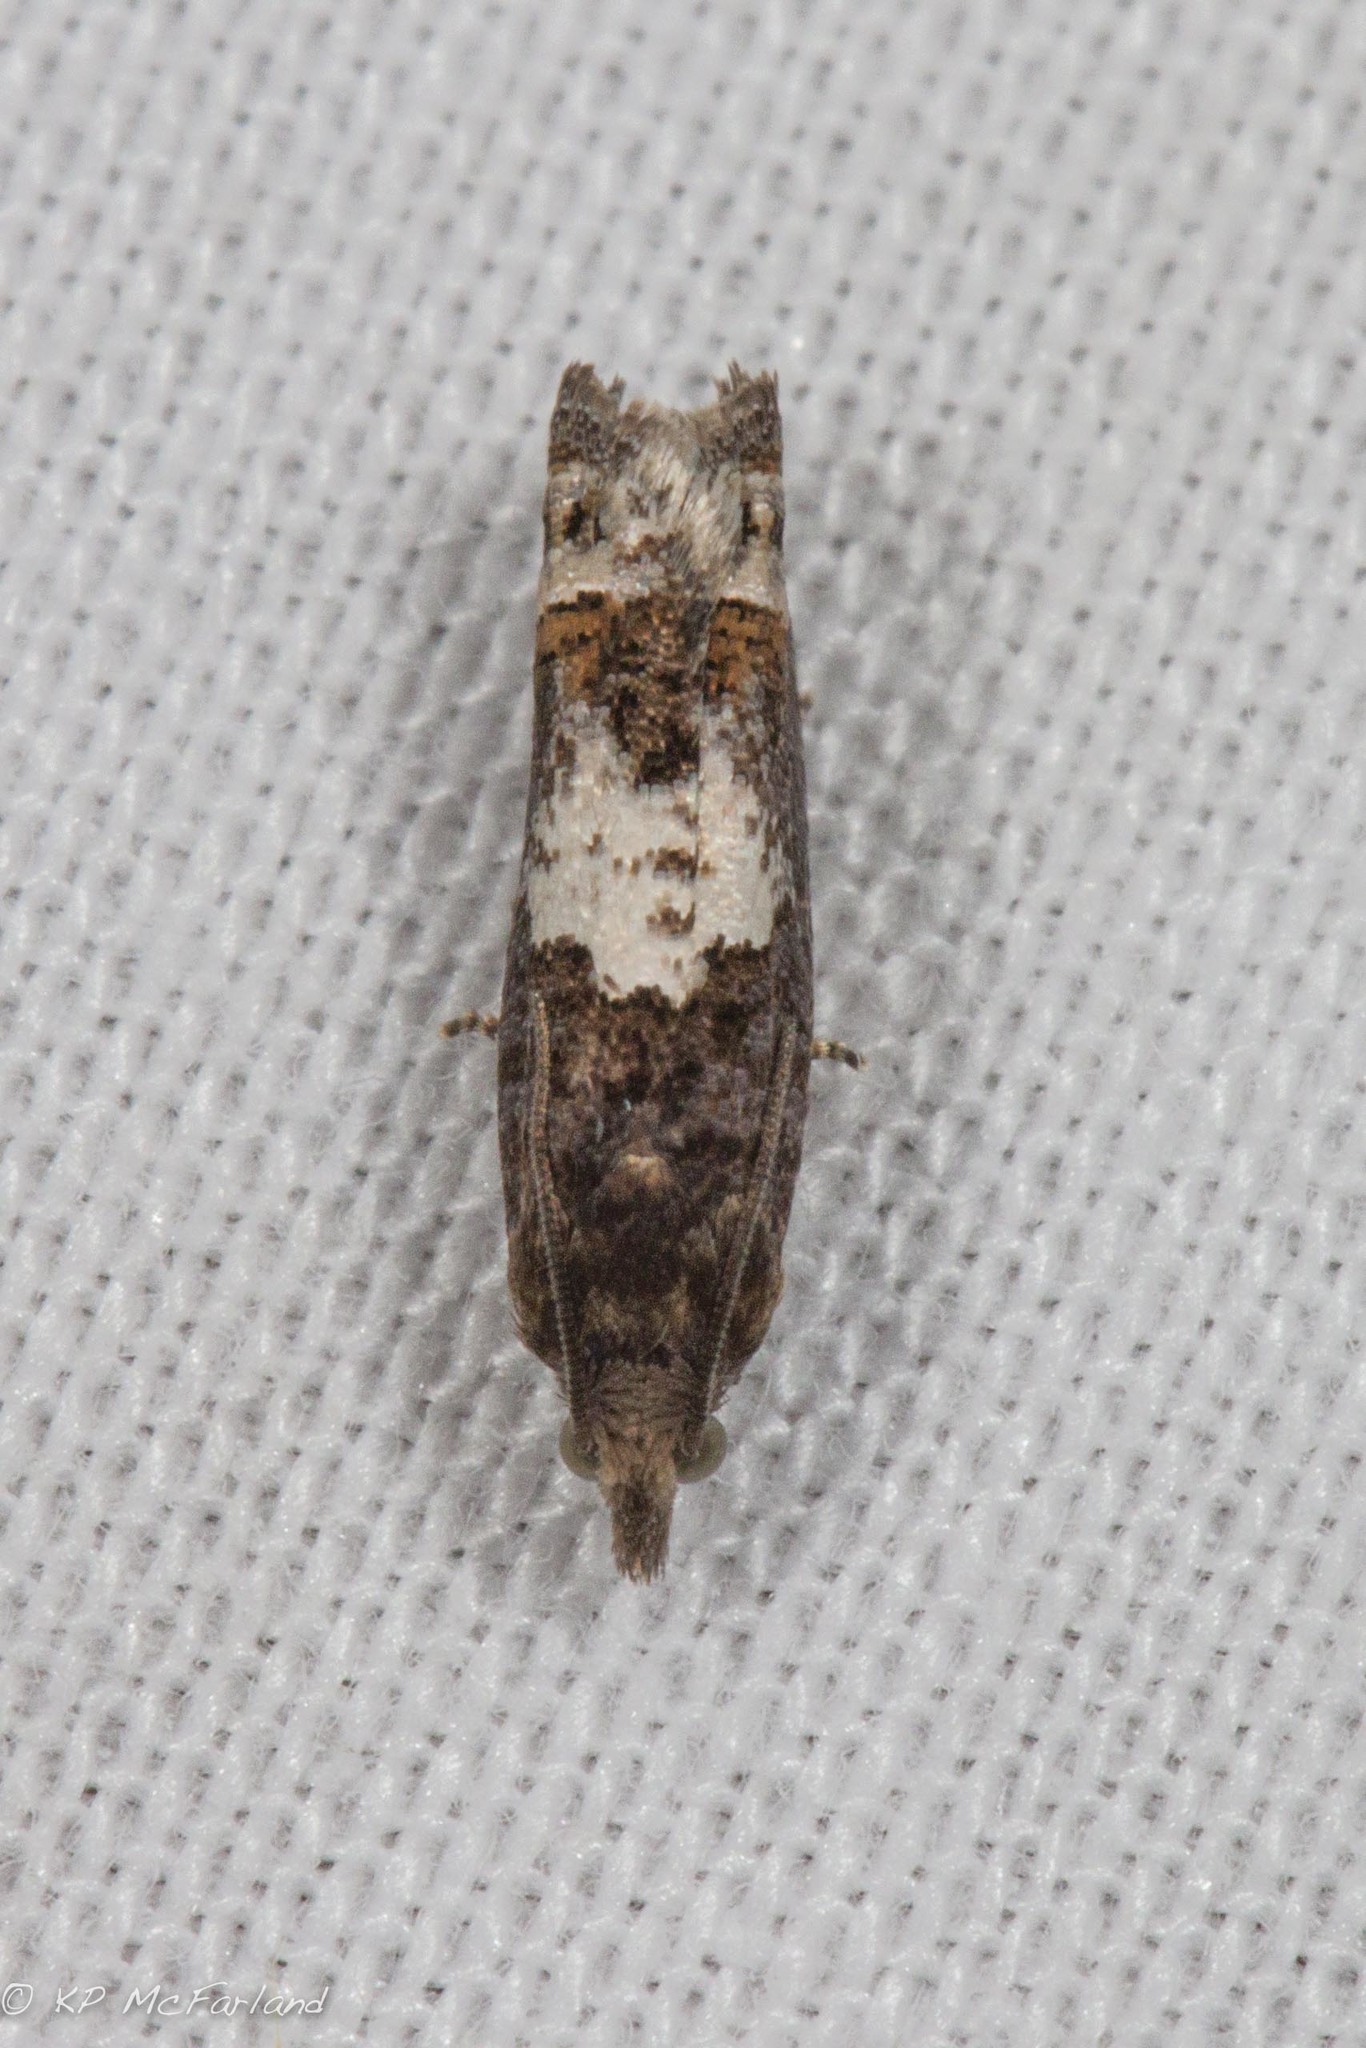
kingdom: Animalia
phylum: Arthropoda
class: Insecta
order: Lepidoptera
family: Tortricidae
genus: Eucosma
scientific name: Eucosma parmatana
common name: Aster eucosma moth
